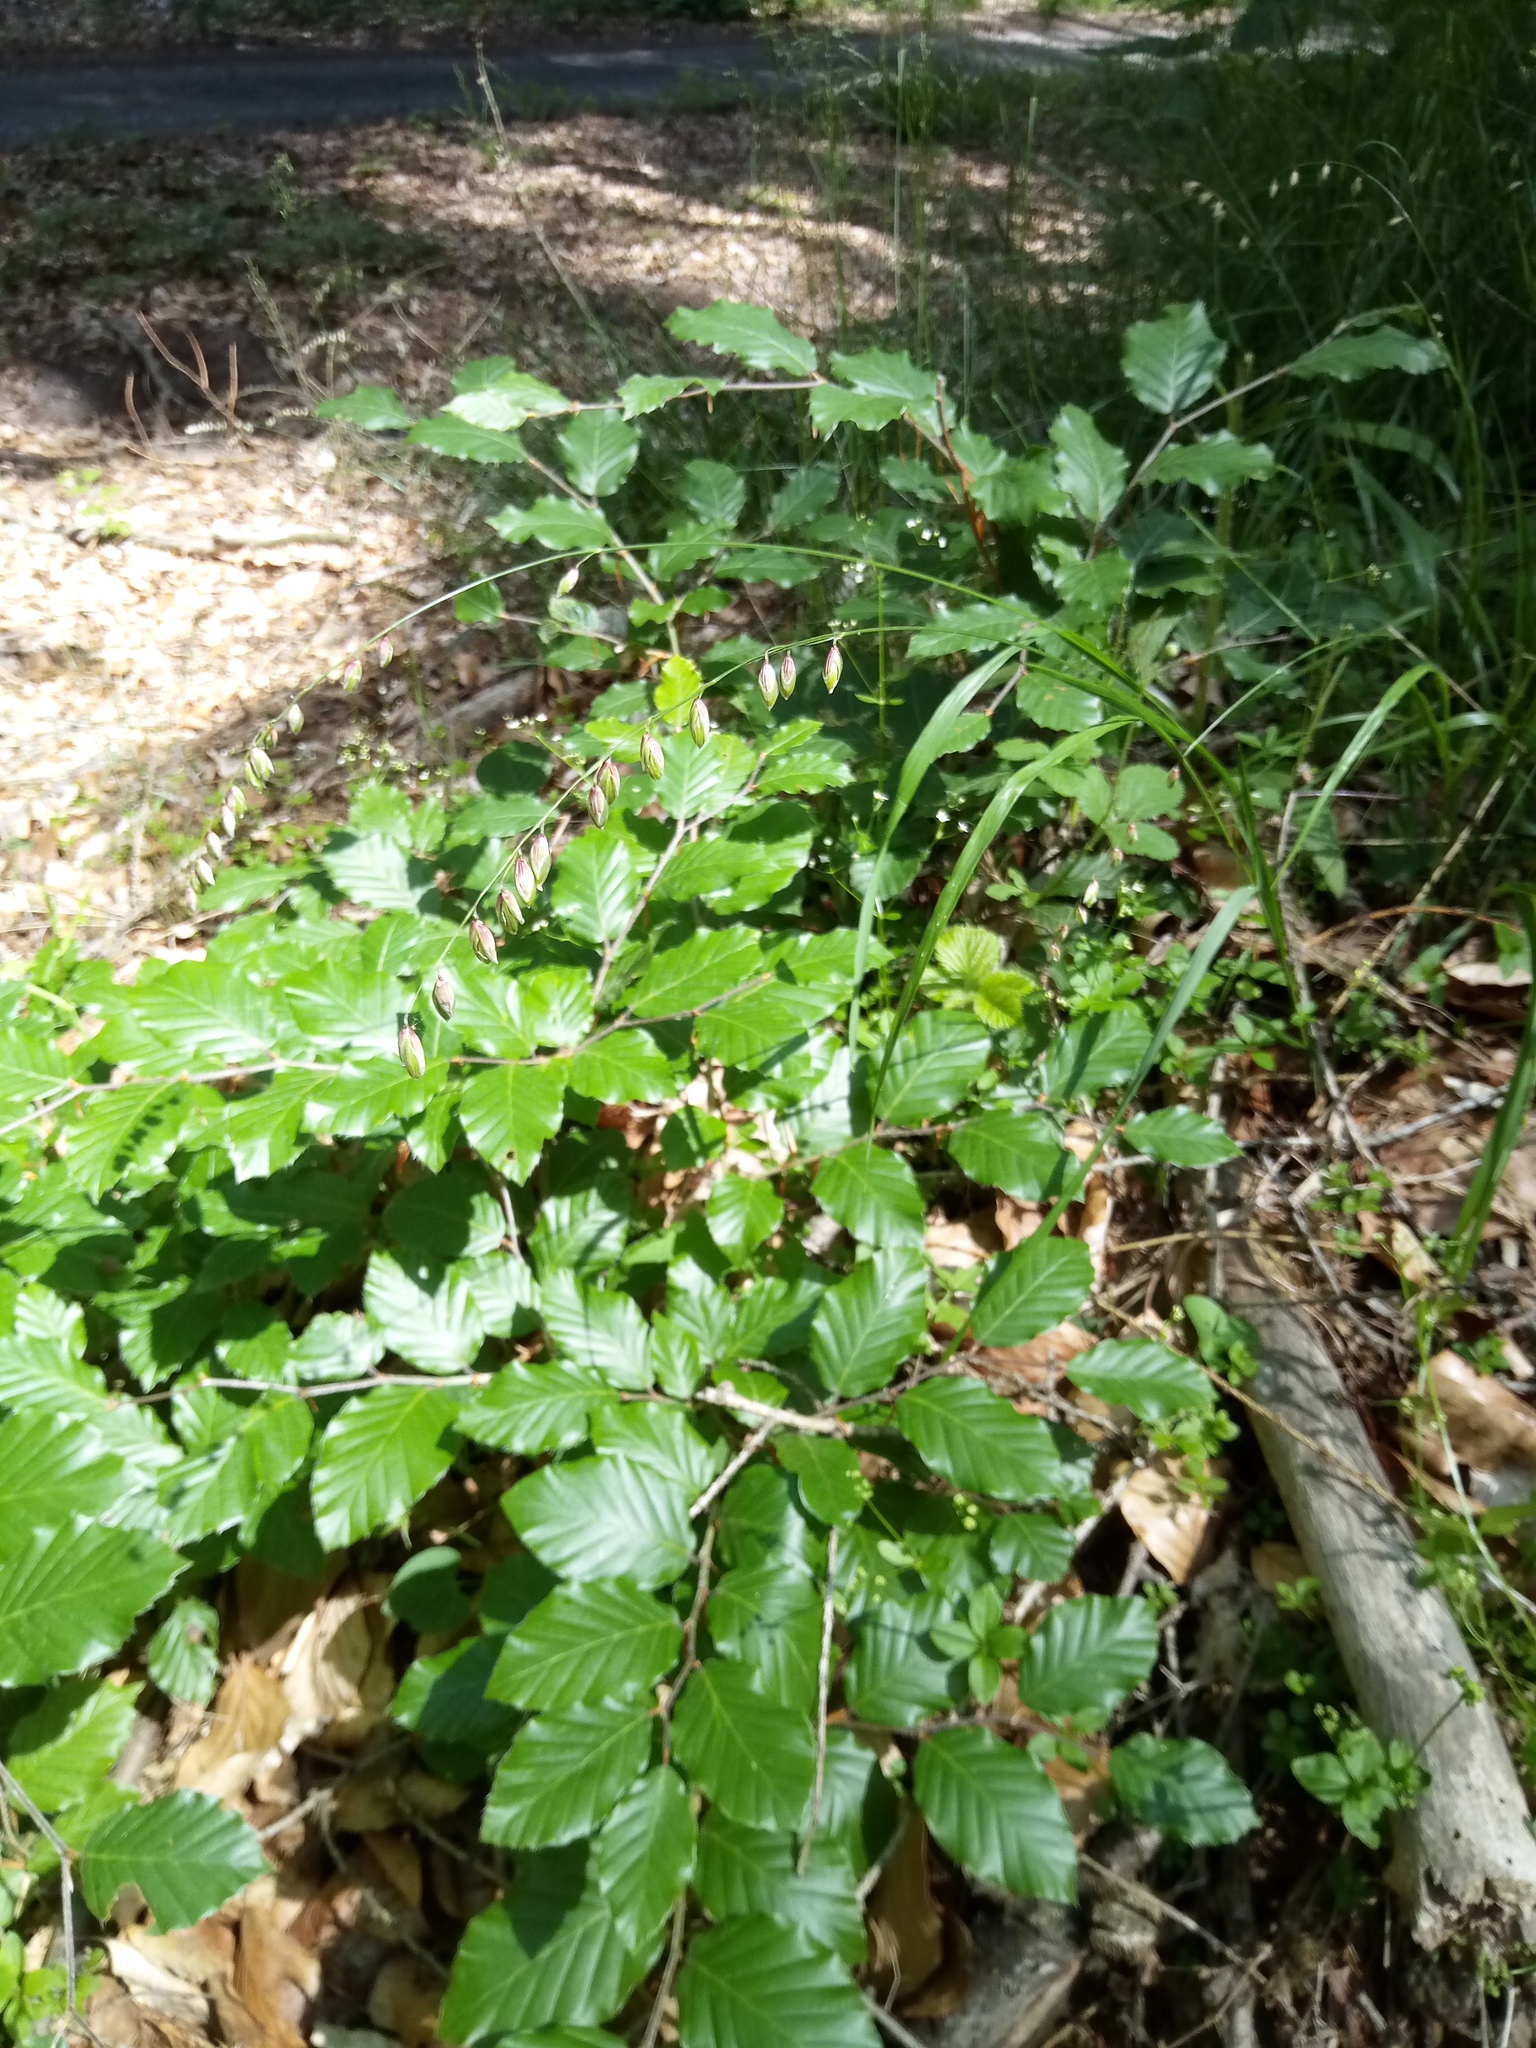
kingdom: Plantae
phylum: Tracheophyta
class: Liliopsida
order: Poales
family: Poaceae
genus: Melica
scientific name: Melica nutans
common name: Mountain melick
